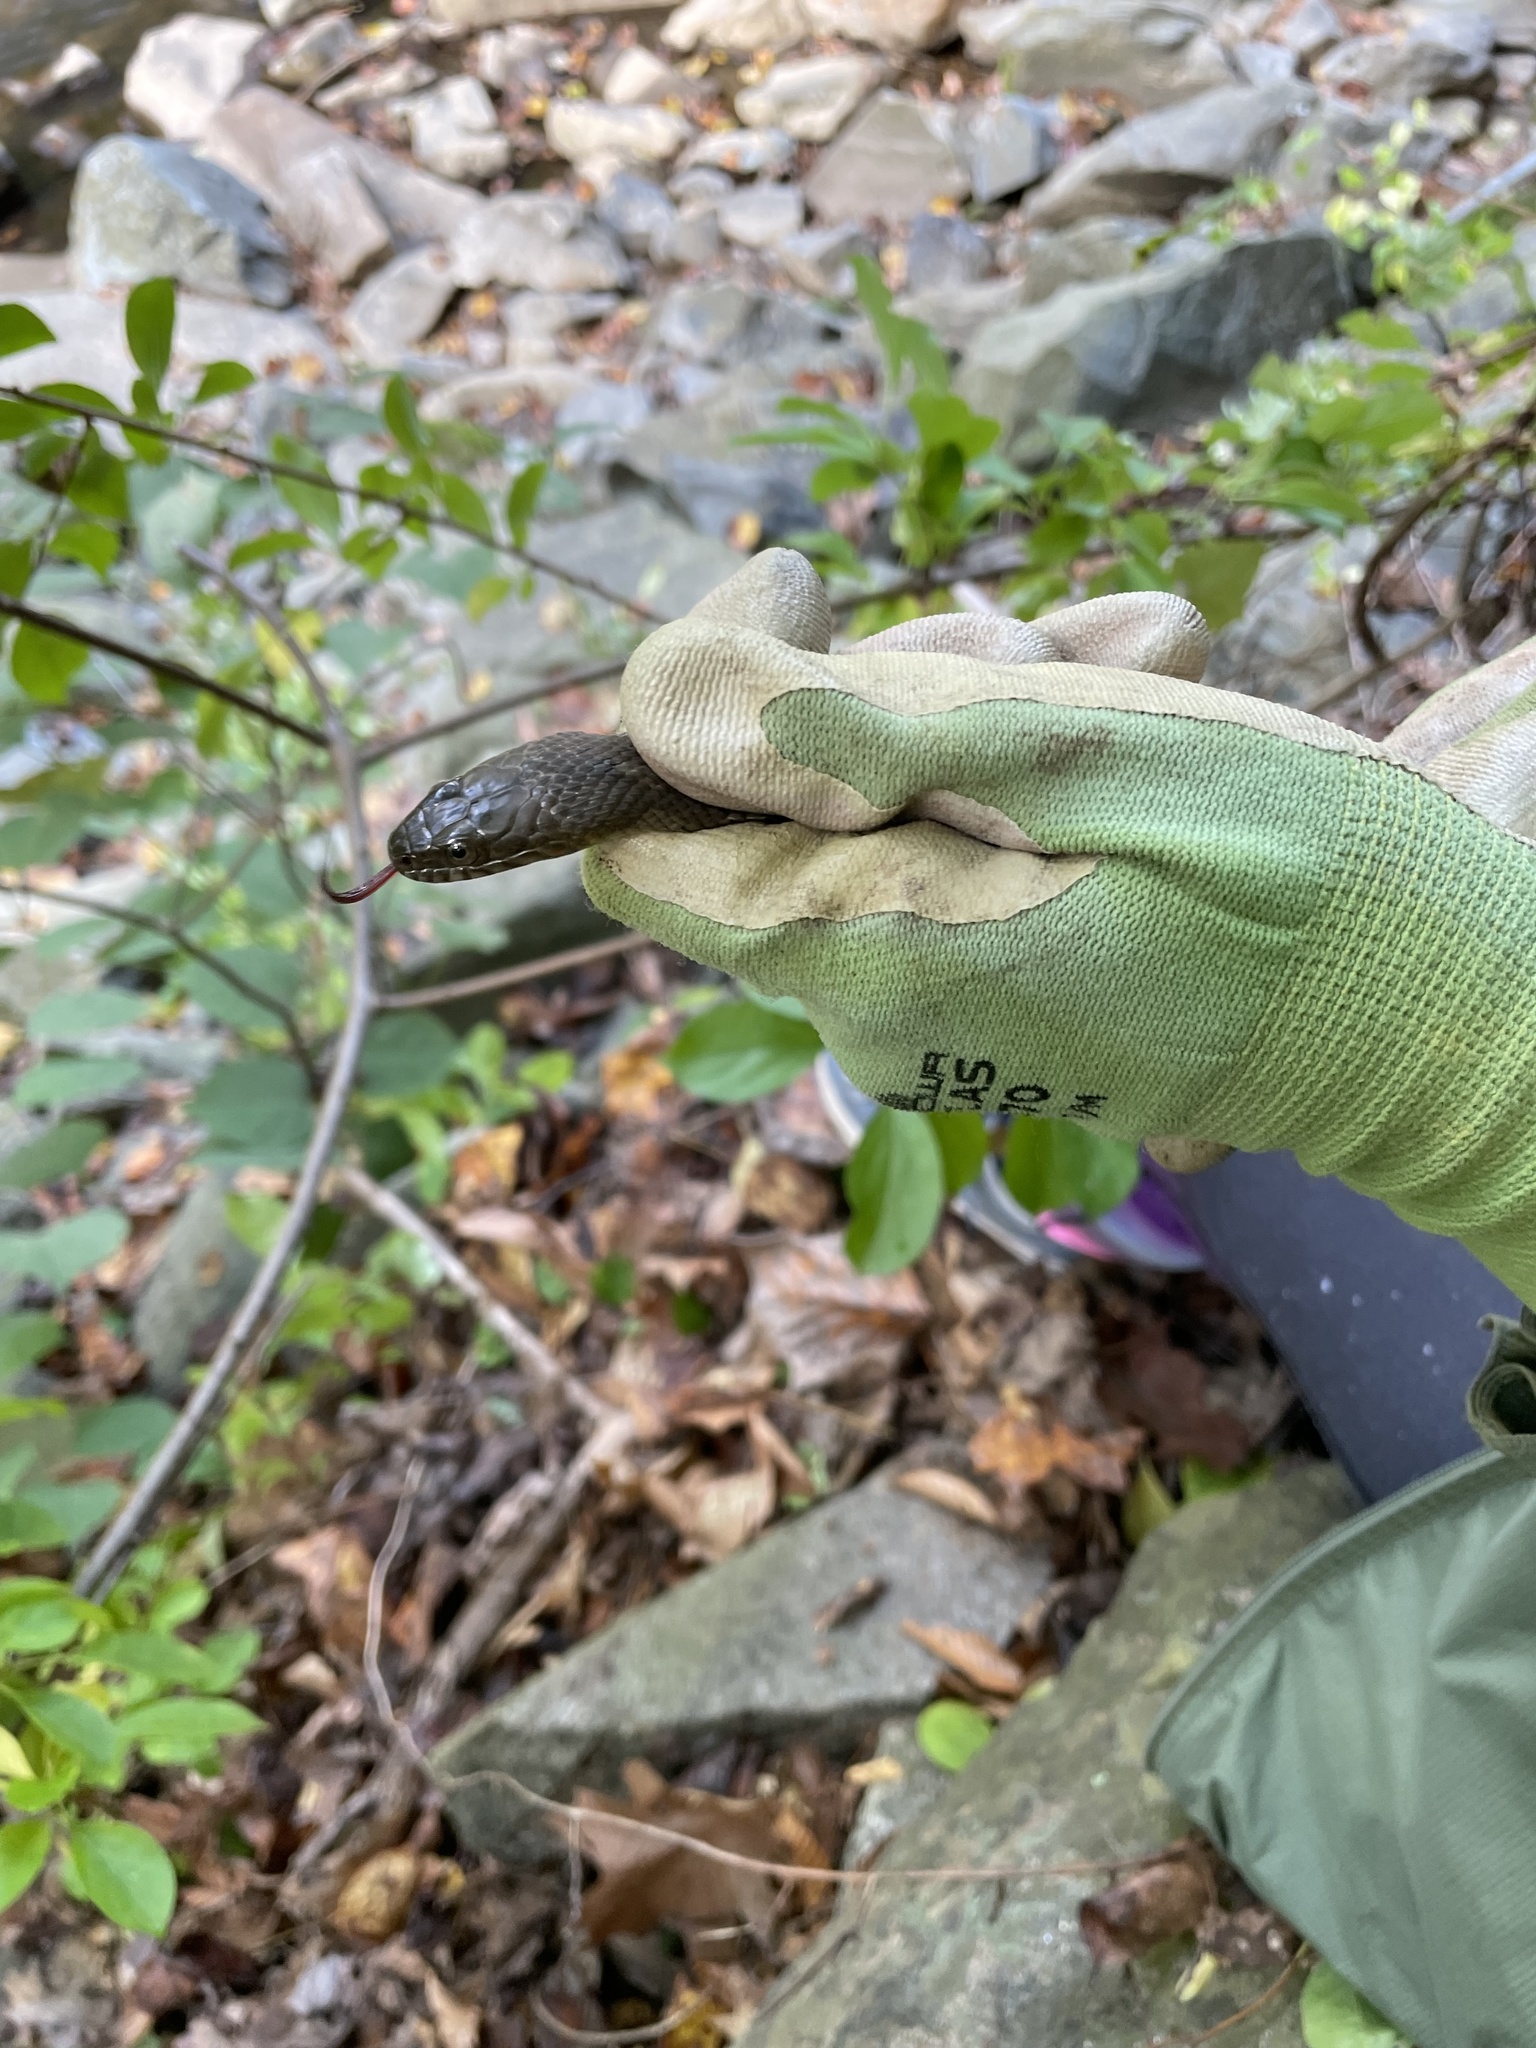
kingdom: Animalia
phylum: Chordata
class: Squamata
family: Colubridae
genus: Nerodia
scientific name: Nerodia sipedon
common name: Northern water snake
